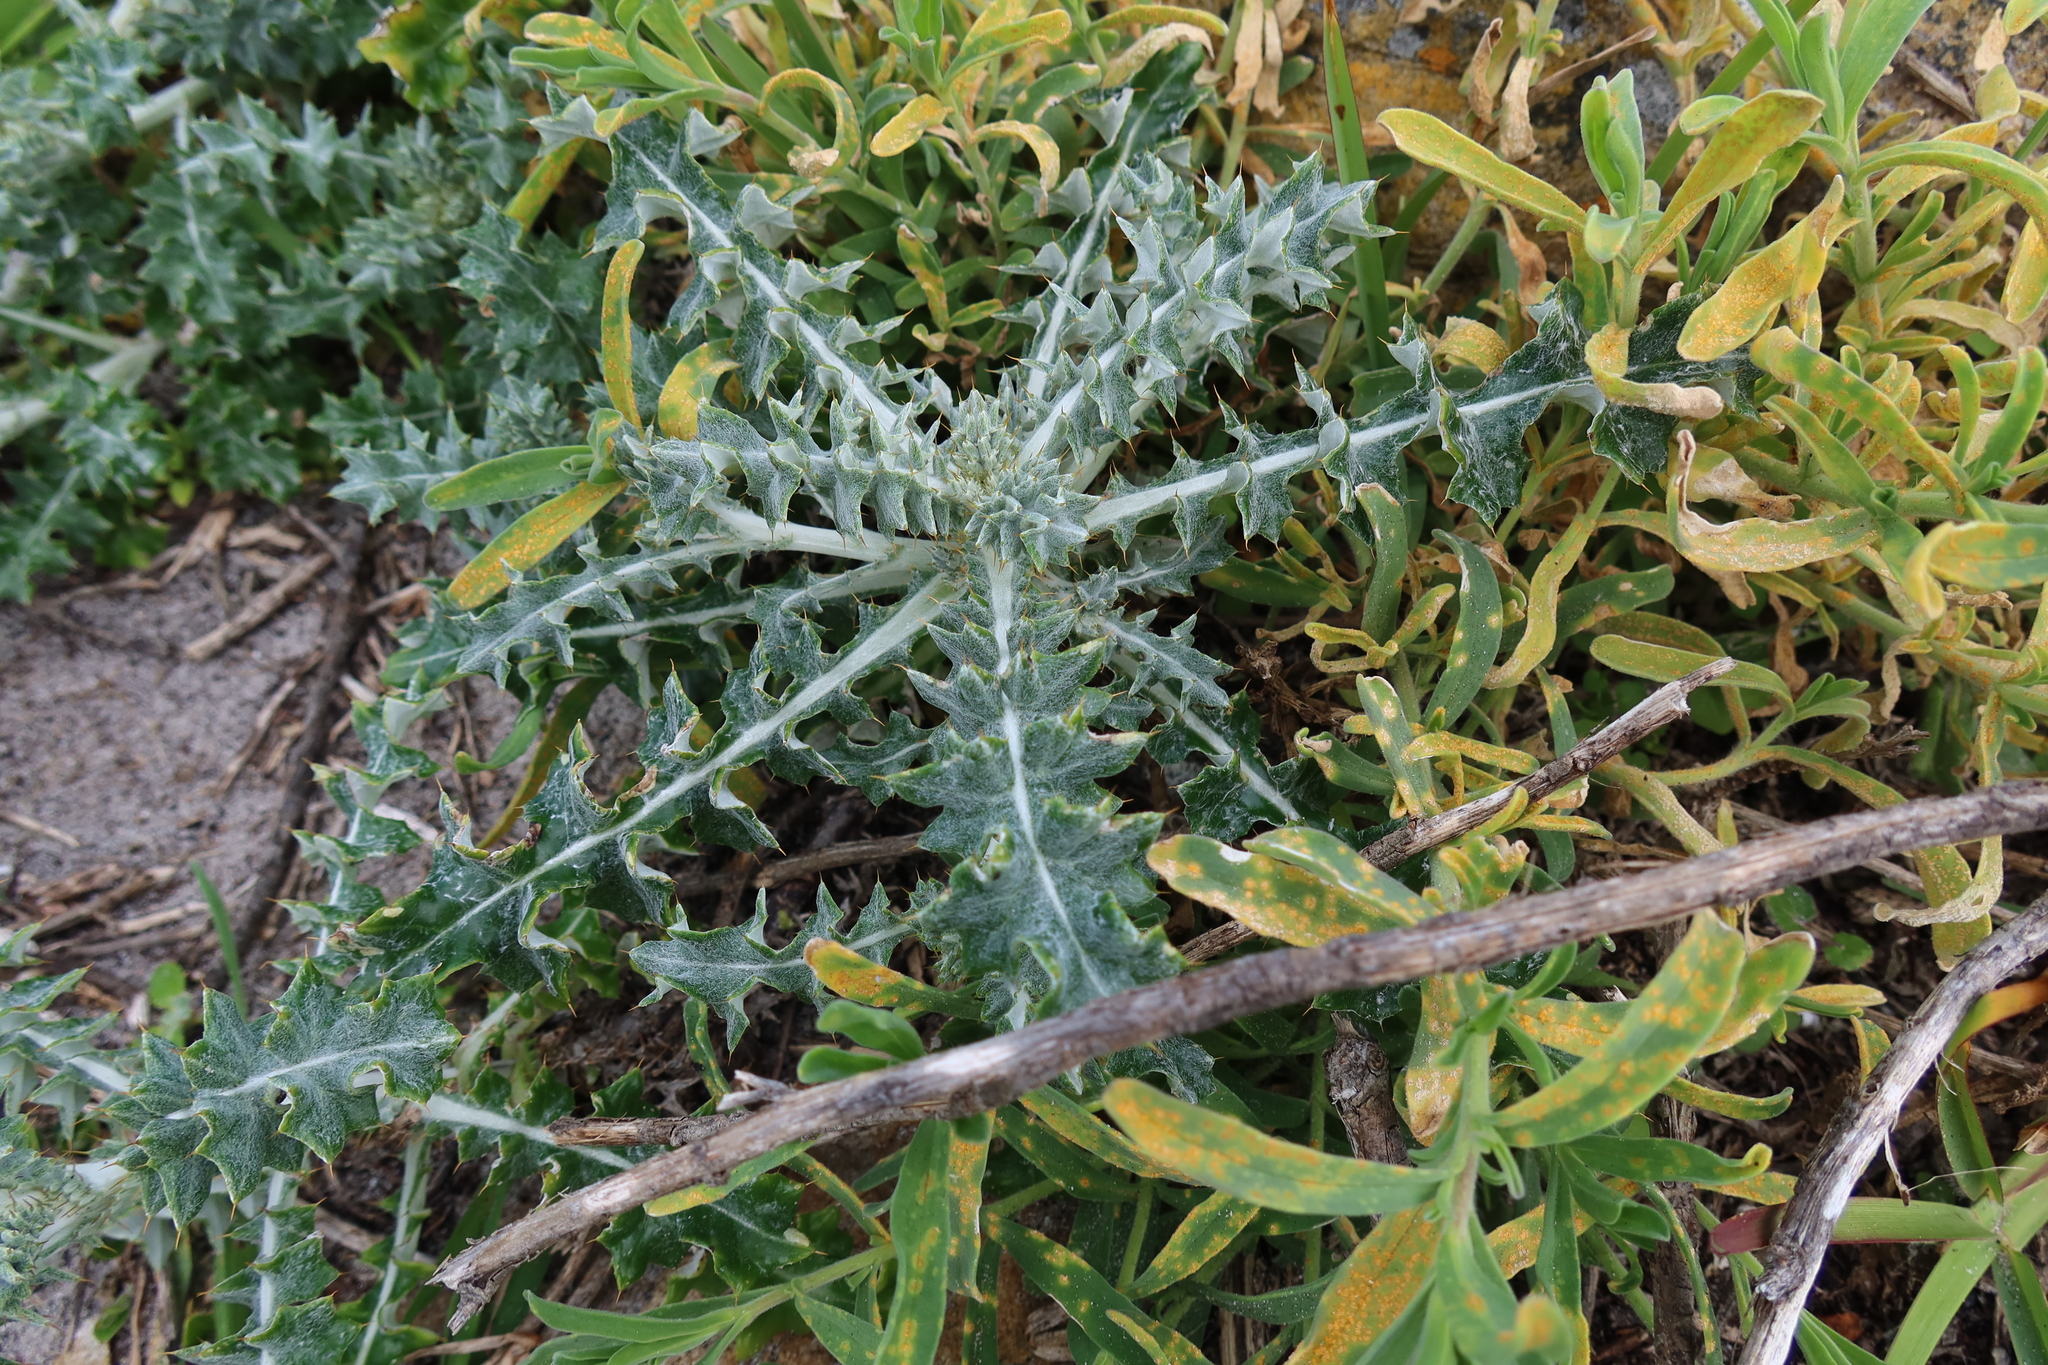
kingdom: Plantae
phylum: Tracheophyta
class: Magnoliopsida
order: Asterales
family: Asteraceae
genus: Berkheya
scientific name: Berkheya rigida
